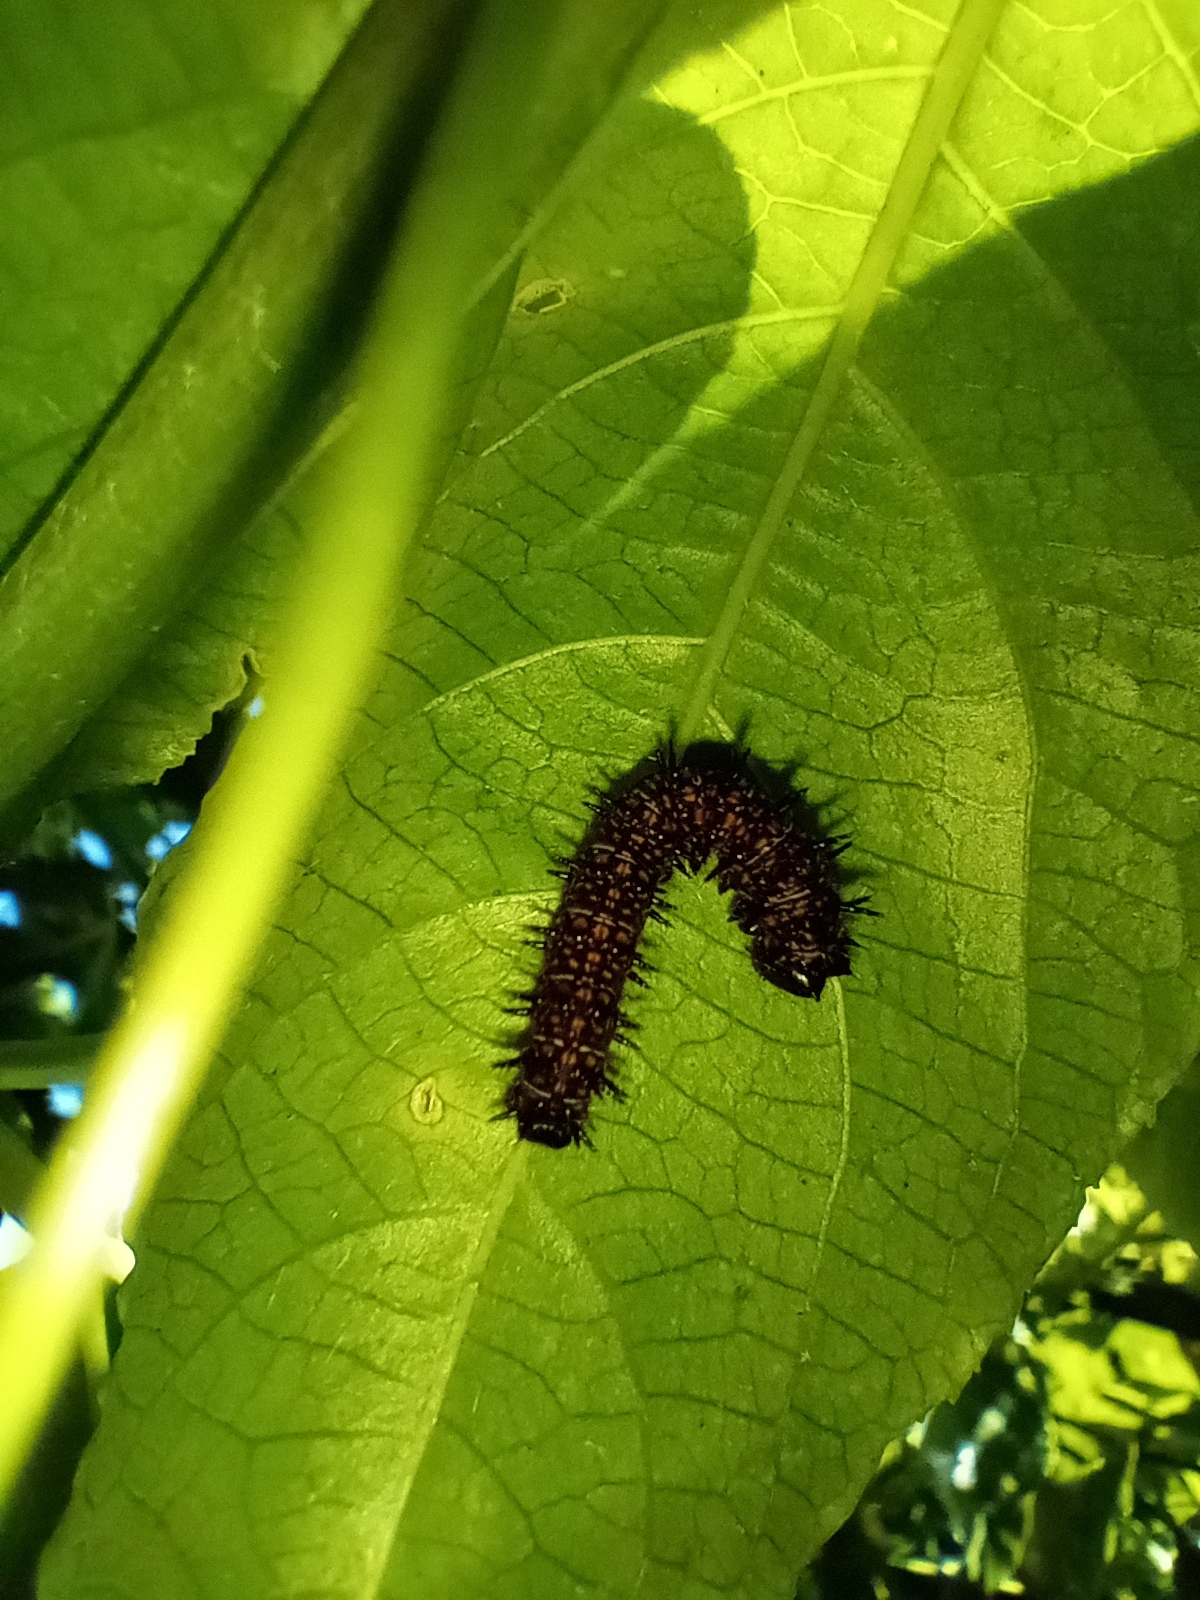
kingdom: Animalia
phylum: Arthropoda
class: Insecta
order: Lepidoptera
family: Nymphalidae
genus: Dione
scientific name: Dione juno
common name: Juno silverspot
